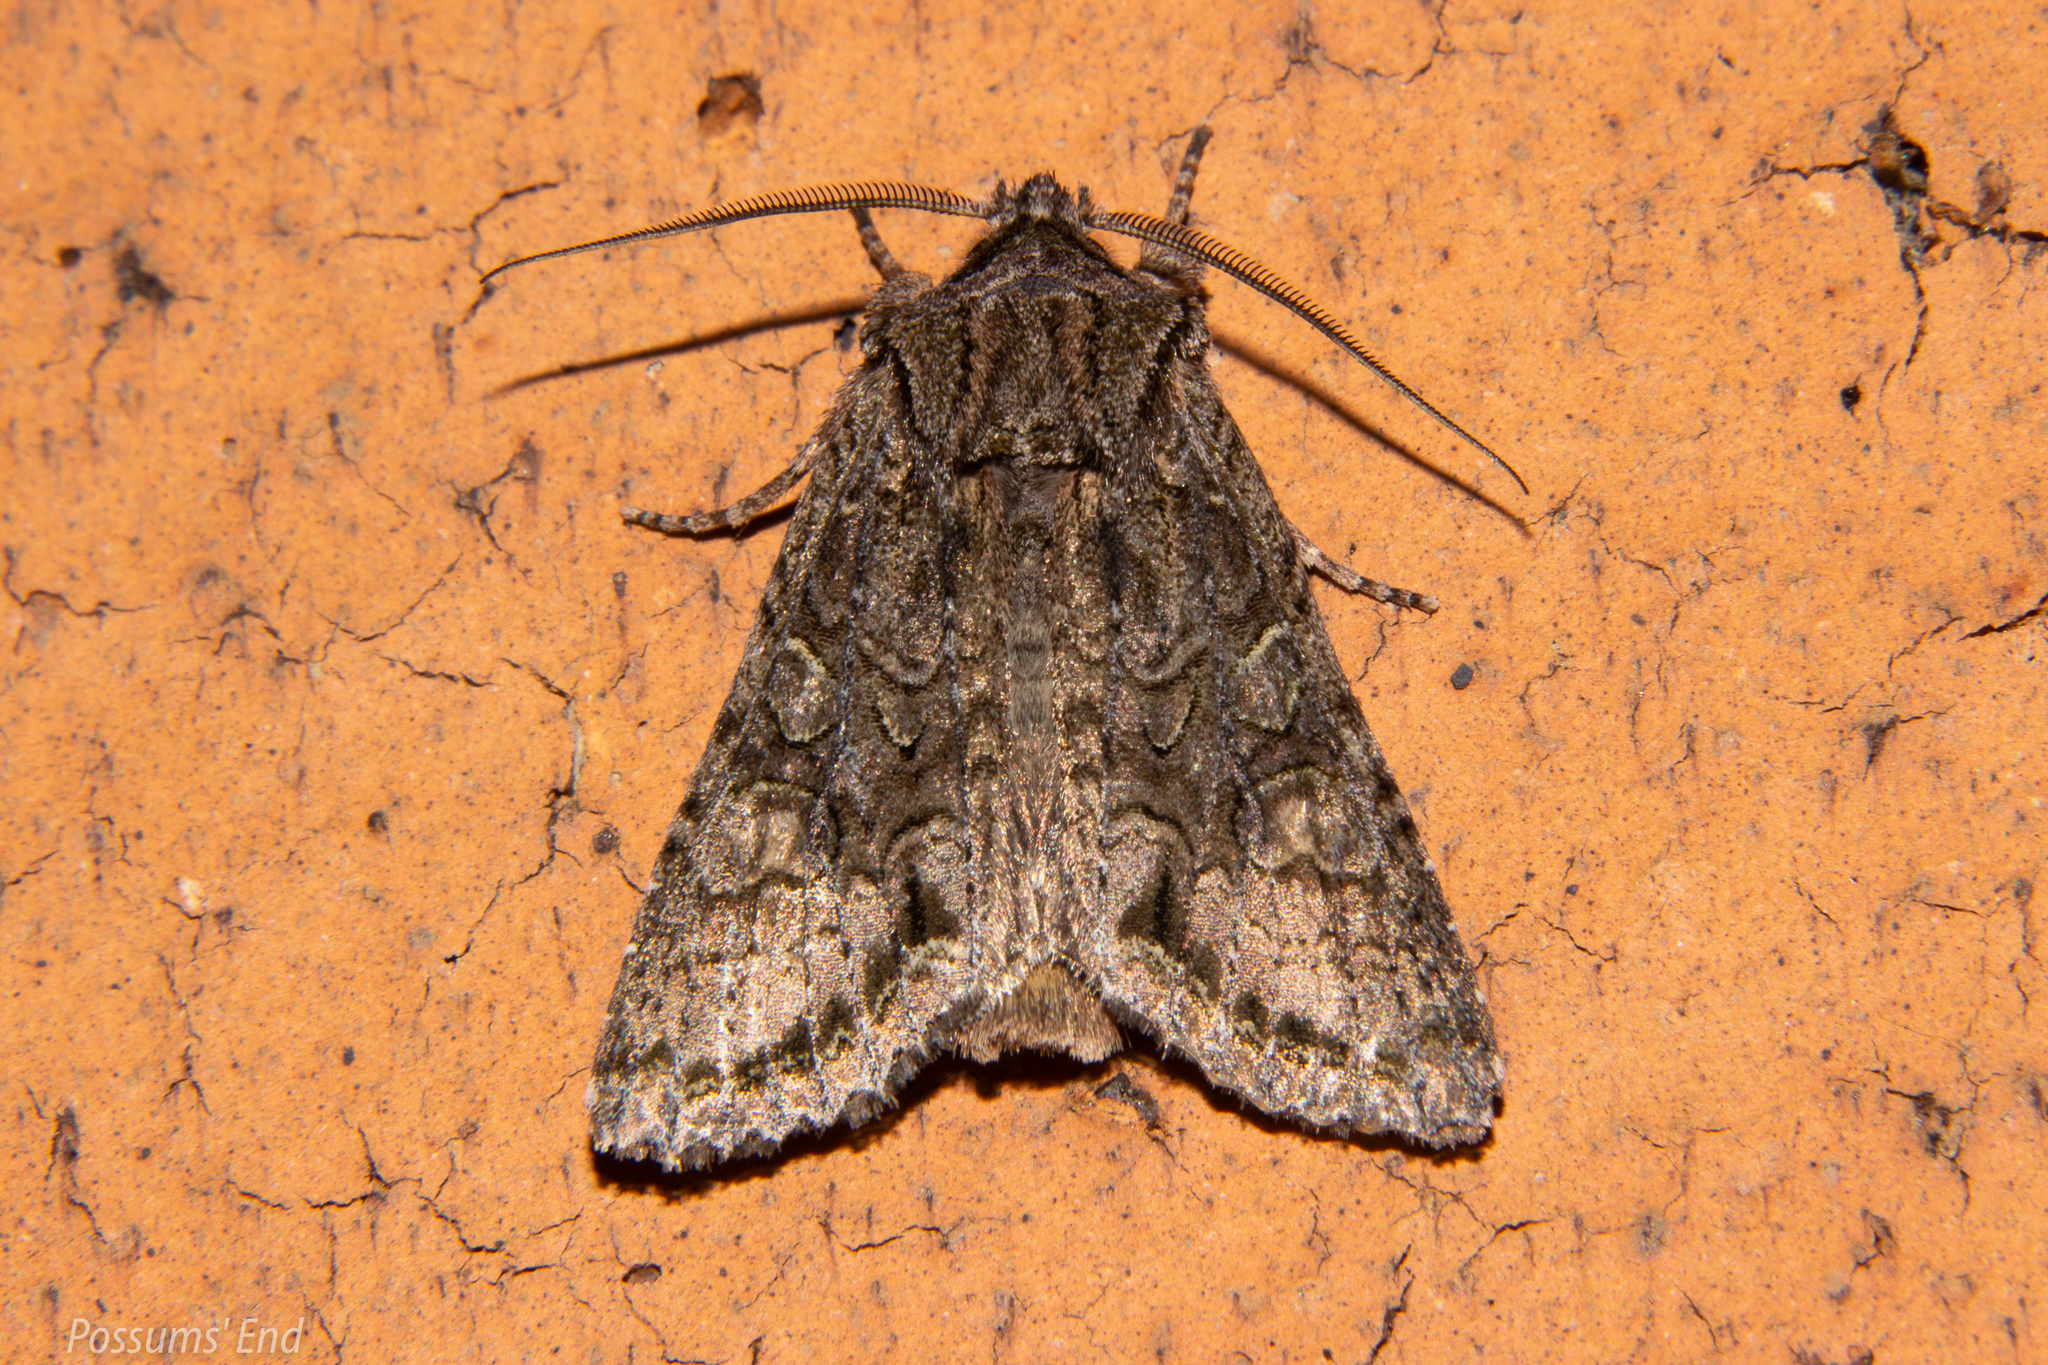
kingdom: Animalia
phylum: Arthropoda
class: Insecta
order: Lepidoptera
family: Noctuidae
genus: Ichneutica
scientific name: Ichneutica mutans
